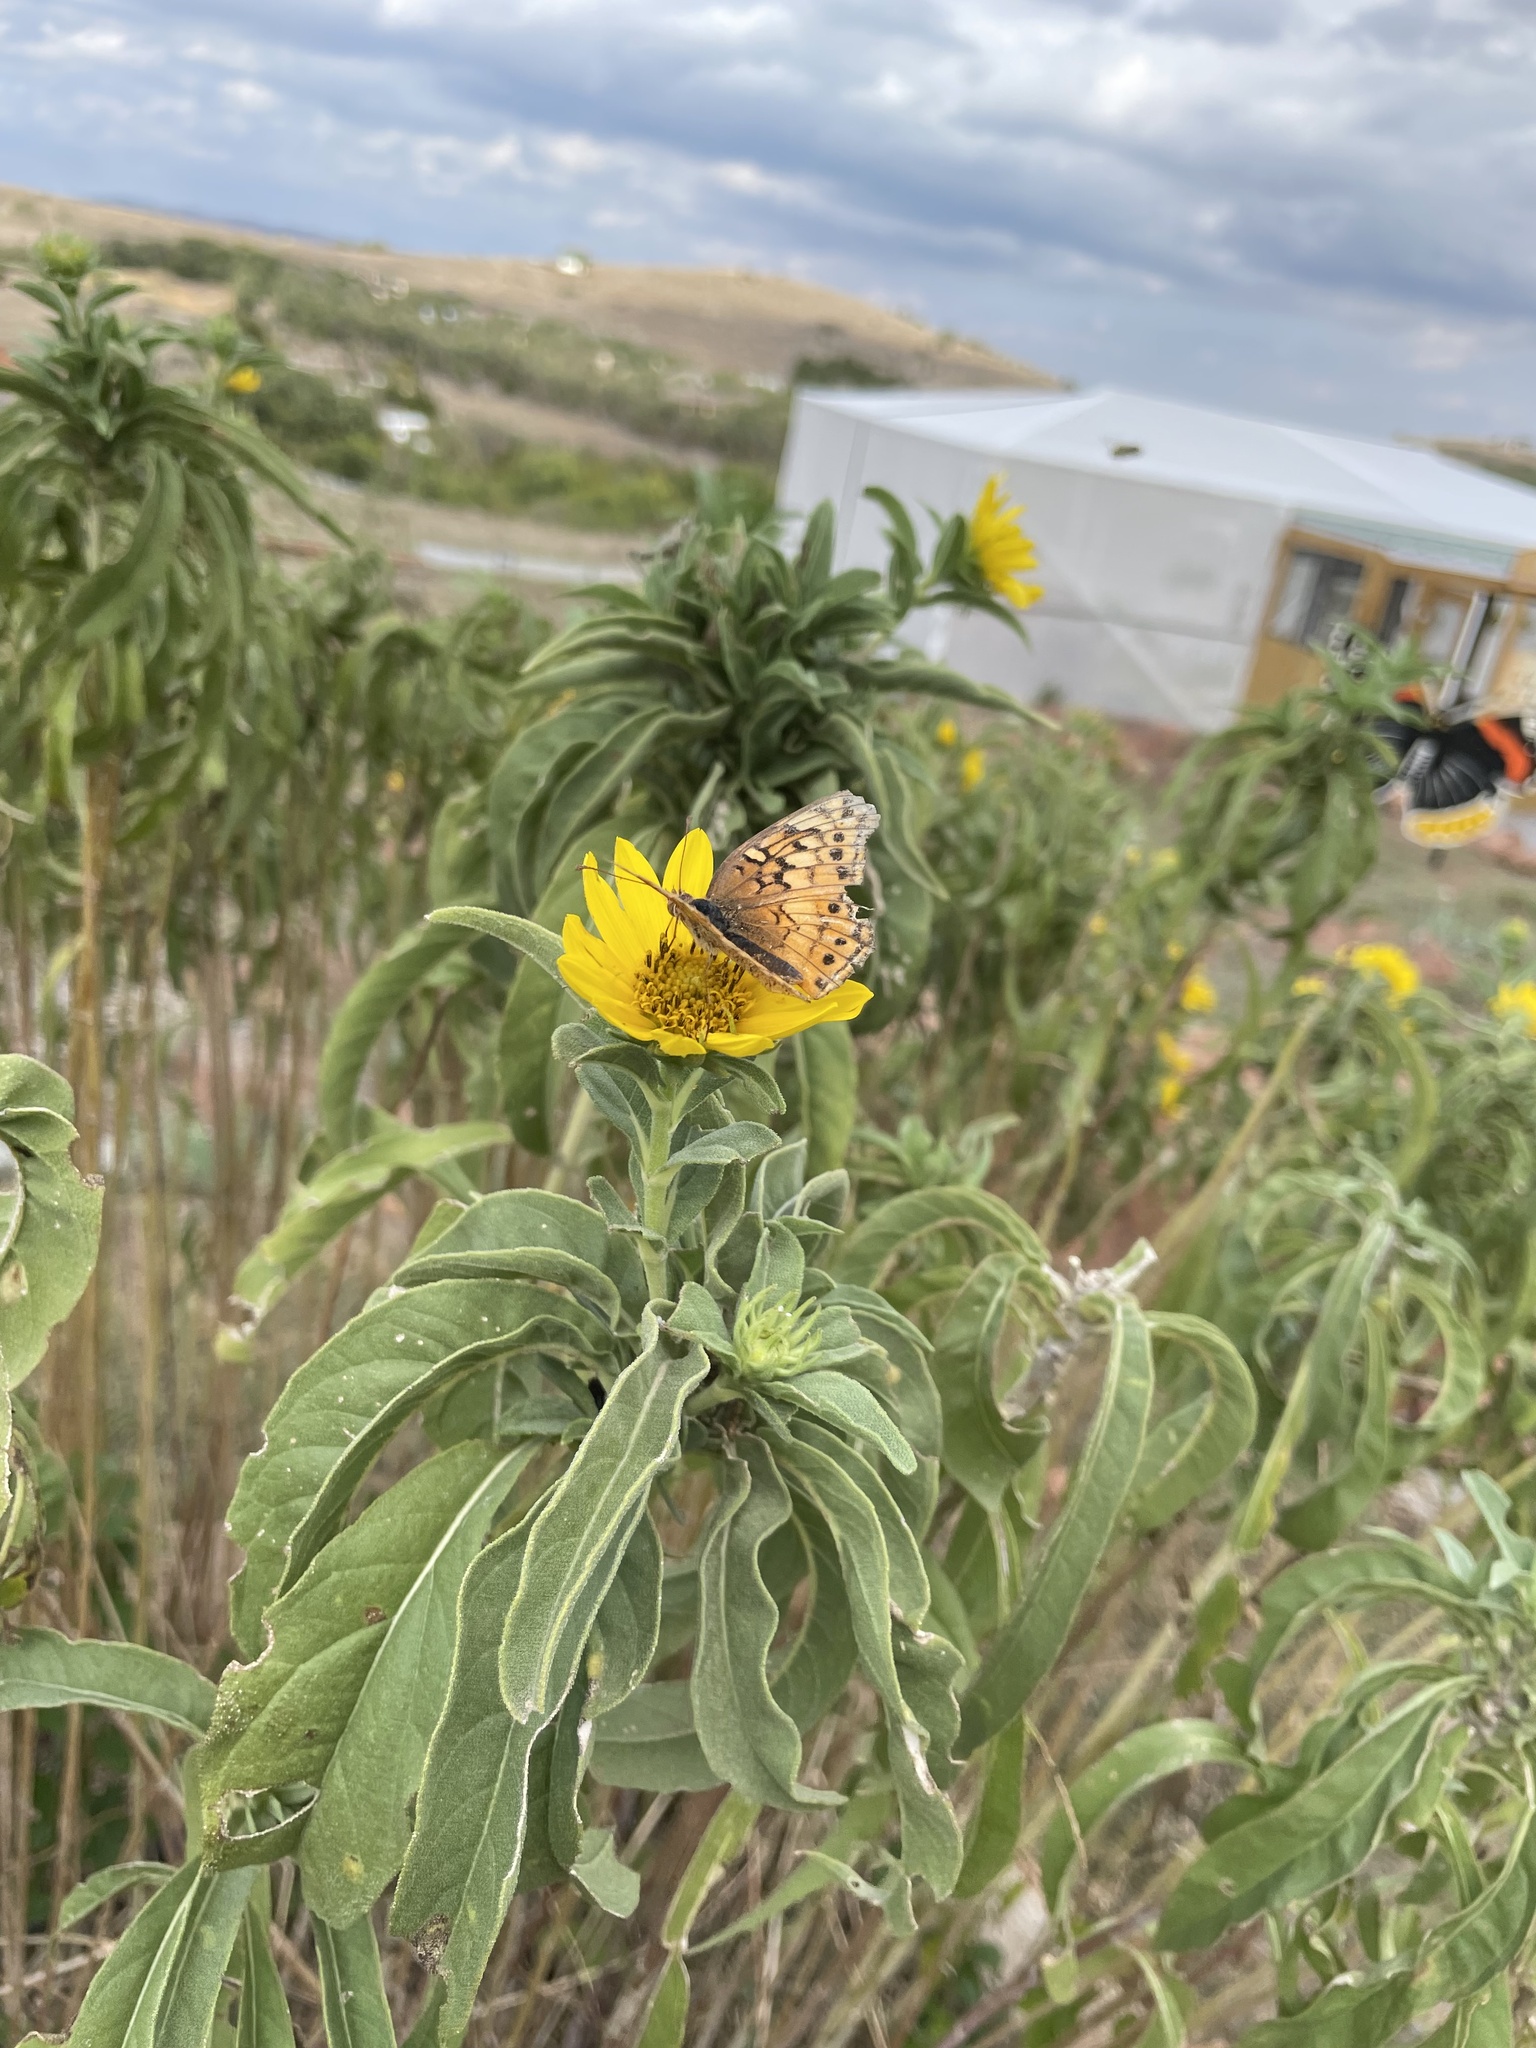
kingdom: Animalia
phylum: Arthropoda
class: Insecta
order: Lepidoptera
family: Nymphalidae
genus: Euptoieta
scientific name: Euptoieta claudia
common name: Variegated fritillary
